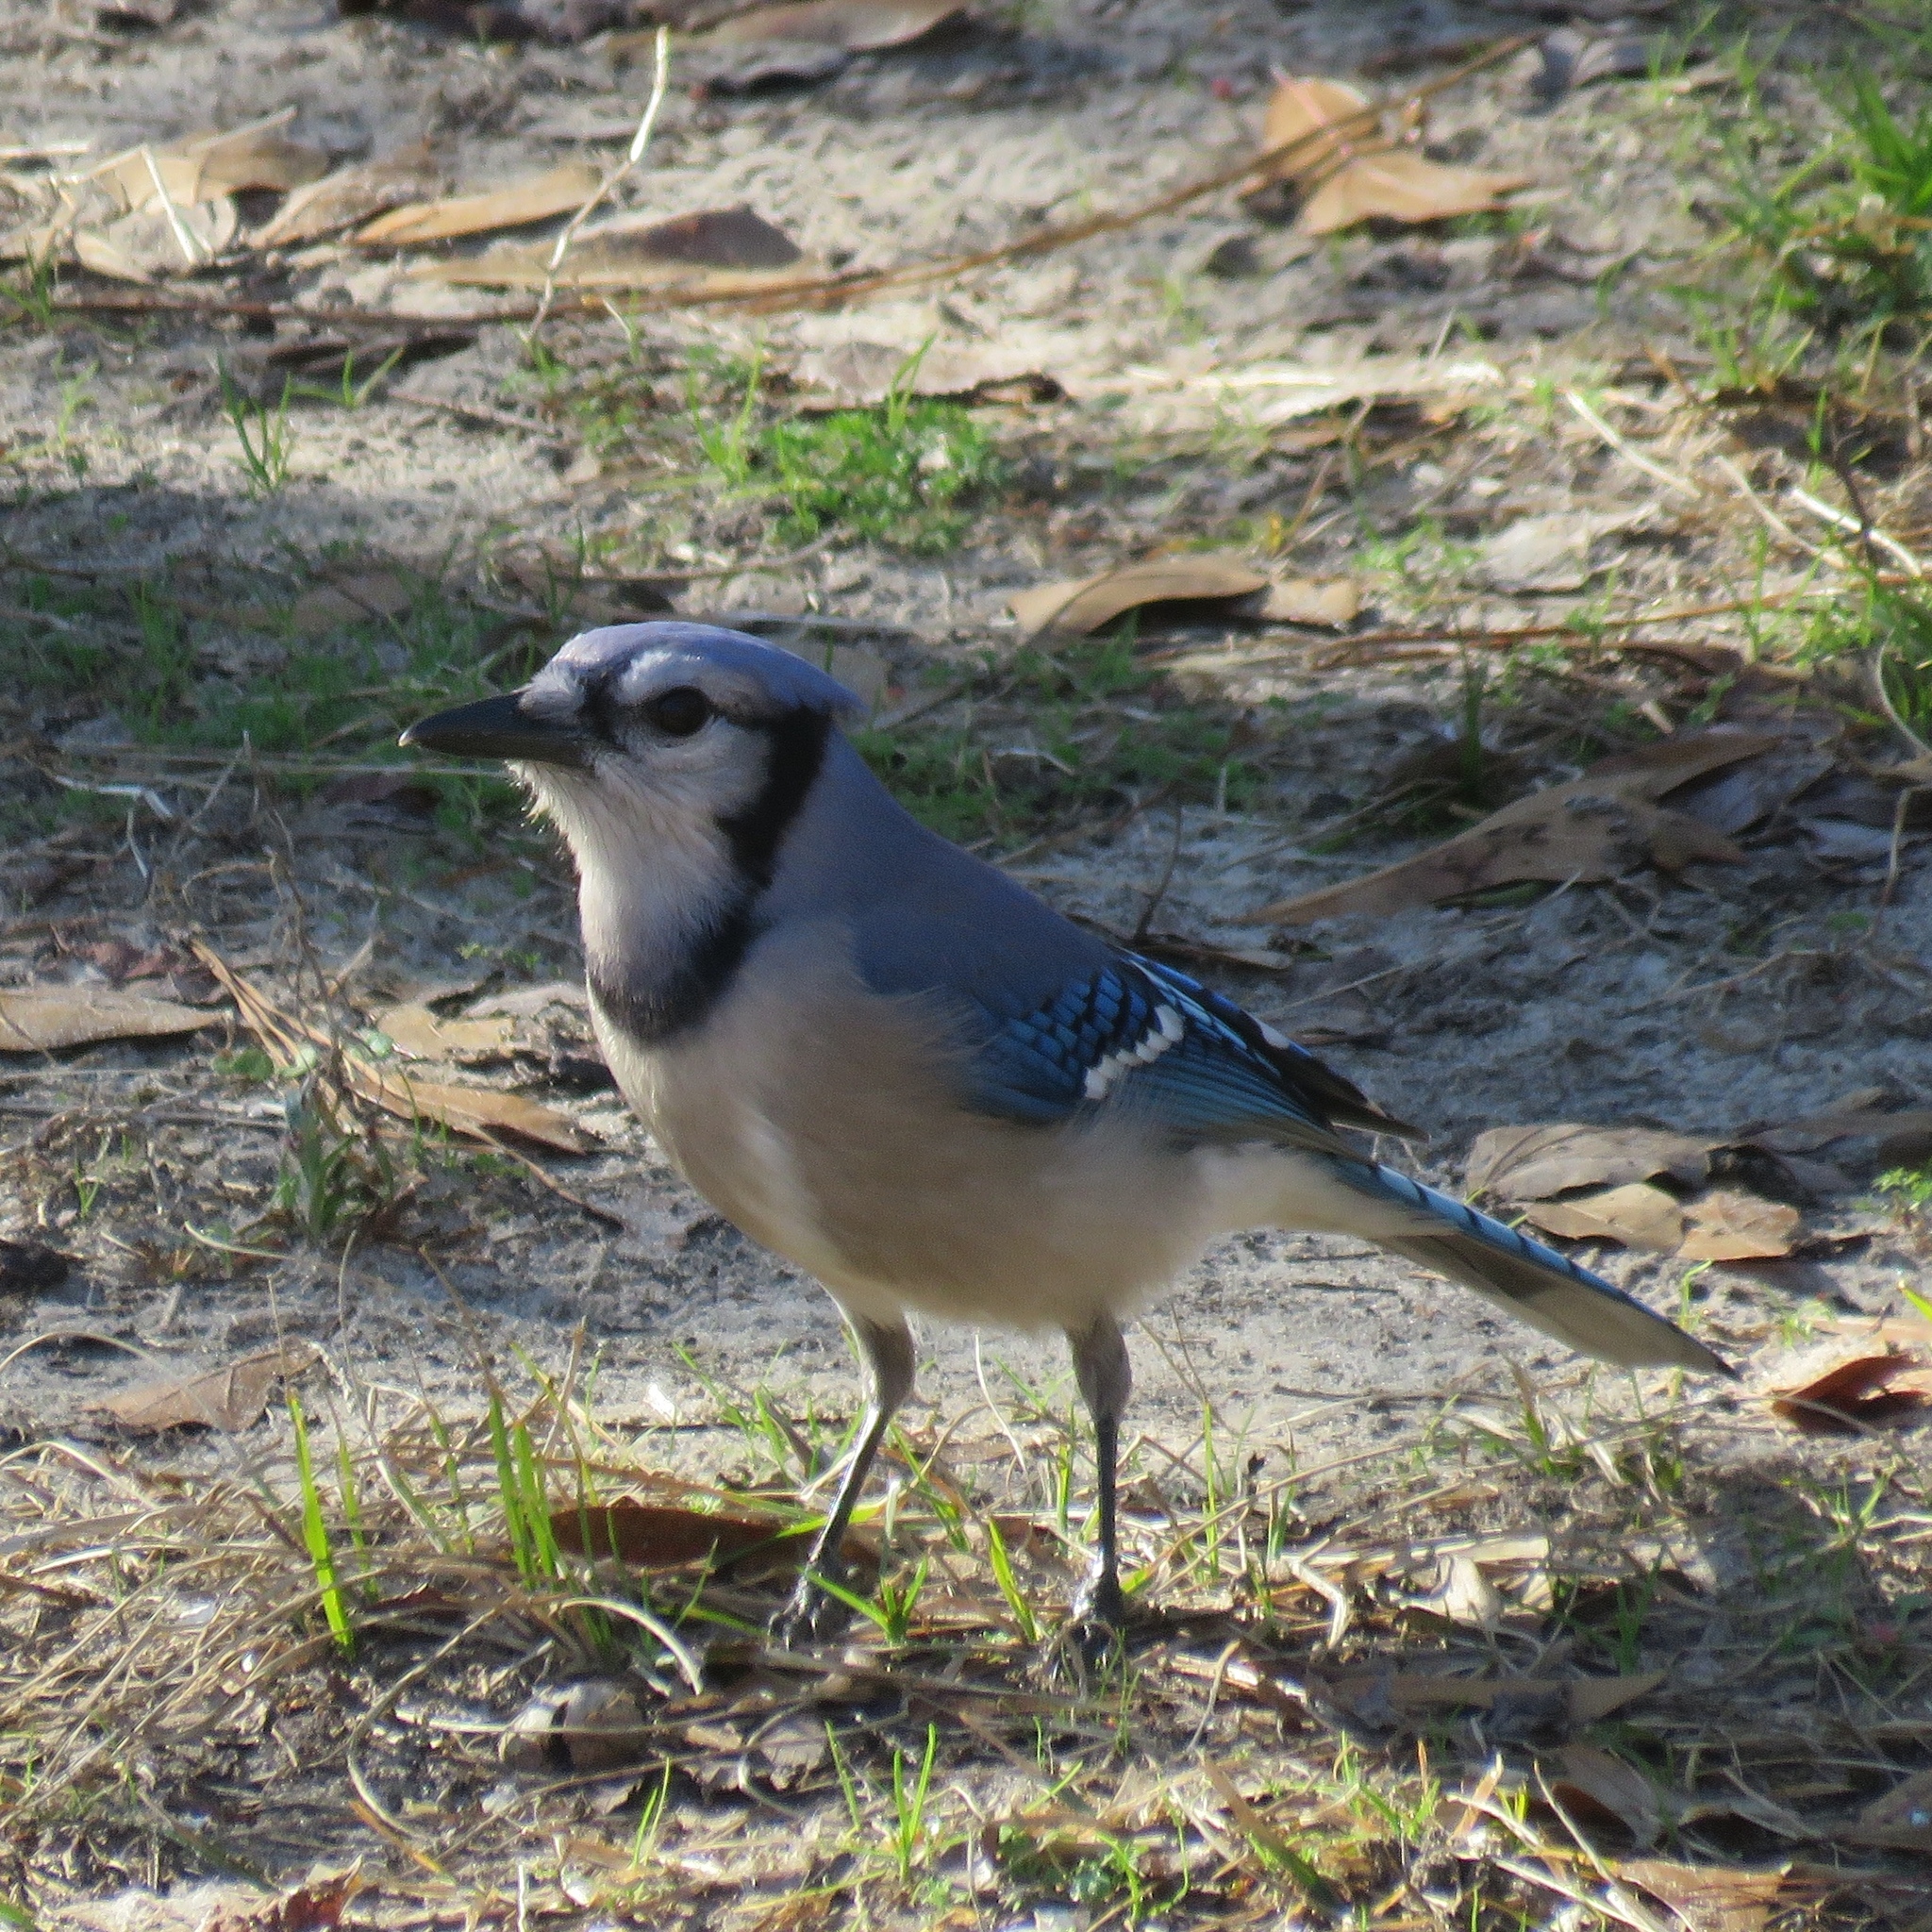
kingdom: Animalia
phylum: Chordata
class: Aves
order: Passeriformes
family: Corvidae
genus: Cyanocitta
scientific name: Cyanocitta cristata
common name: Blue jay
